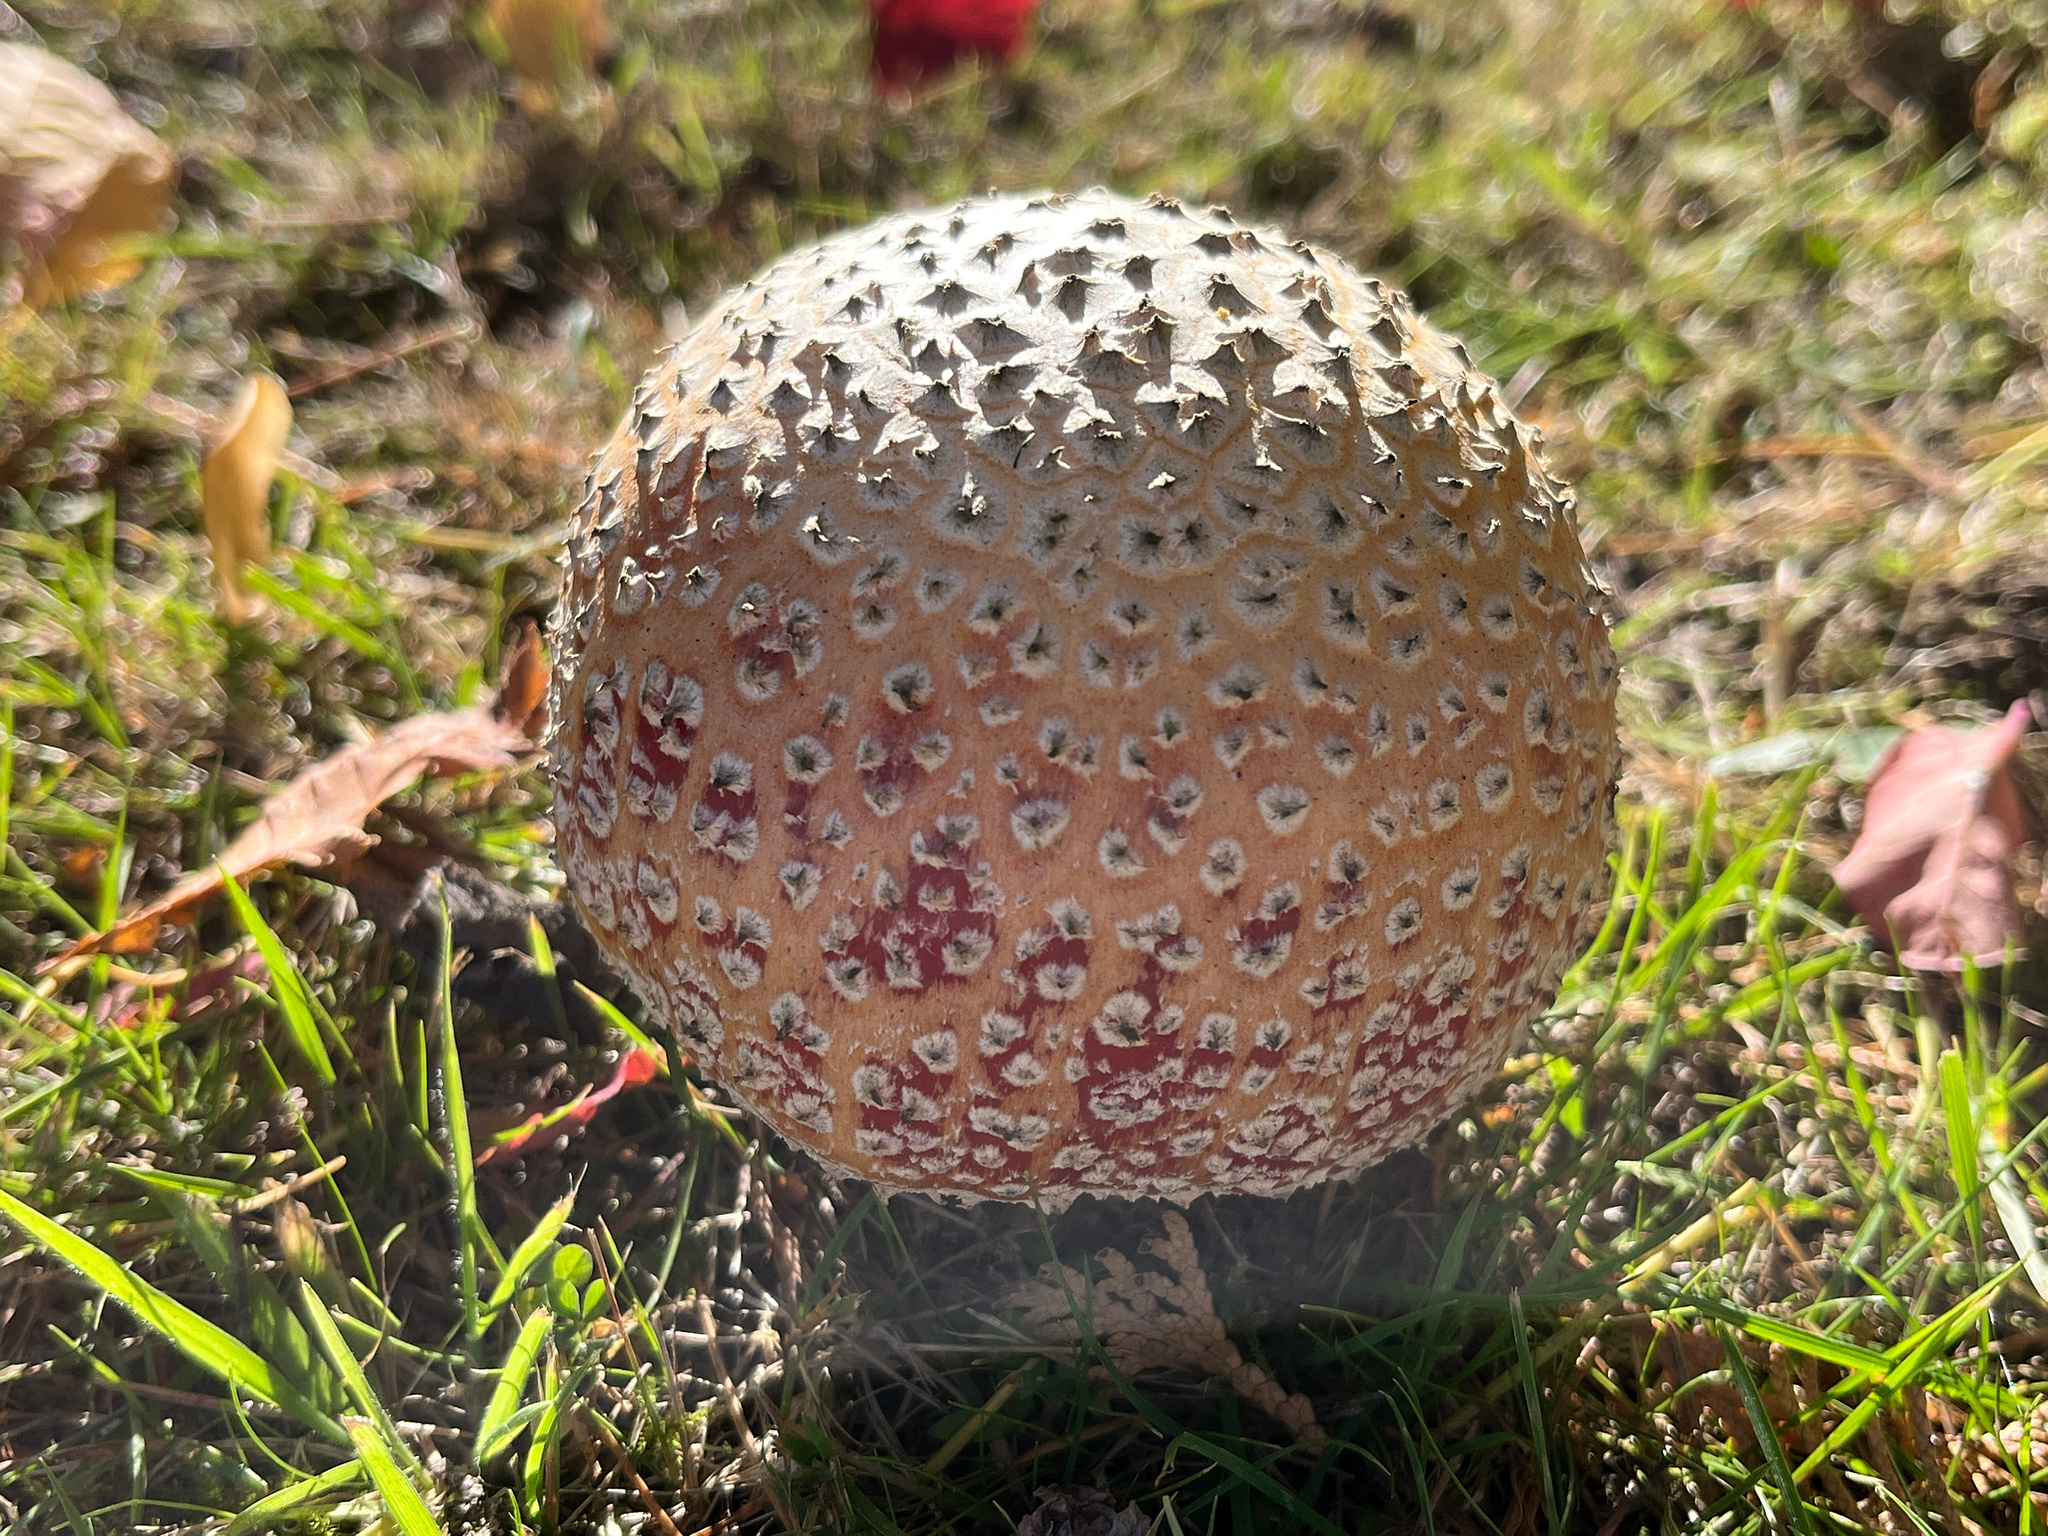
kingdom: Fungi
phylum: Basidiomycota
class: Agaricomycetes
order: Agaricales
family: Amanitaceae
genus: Amanita
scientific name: Amanita muscaria
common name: Fly agaric
